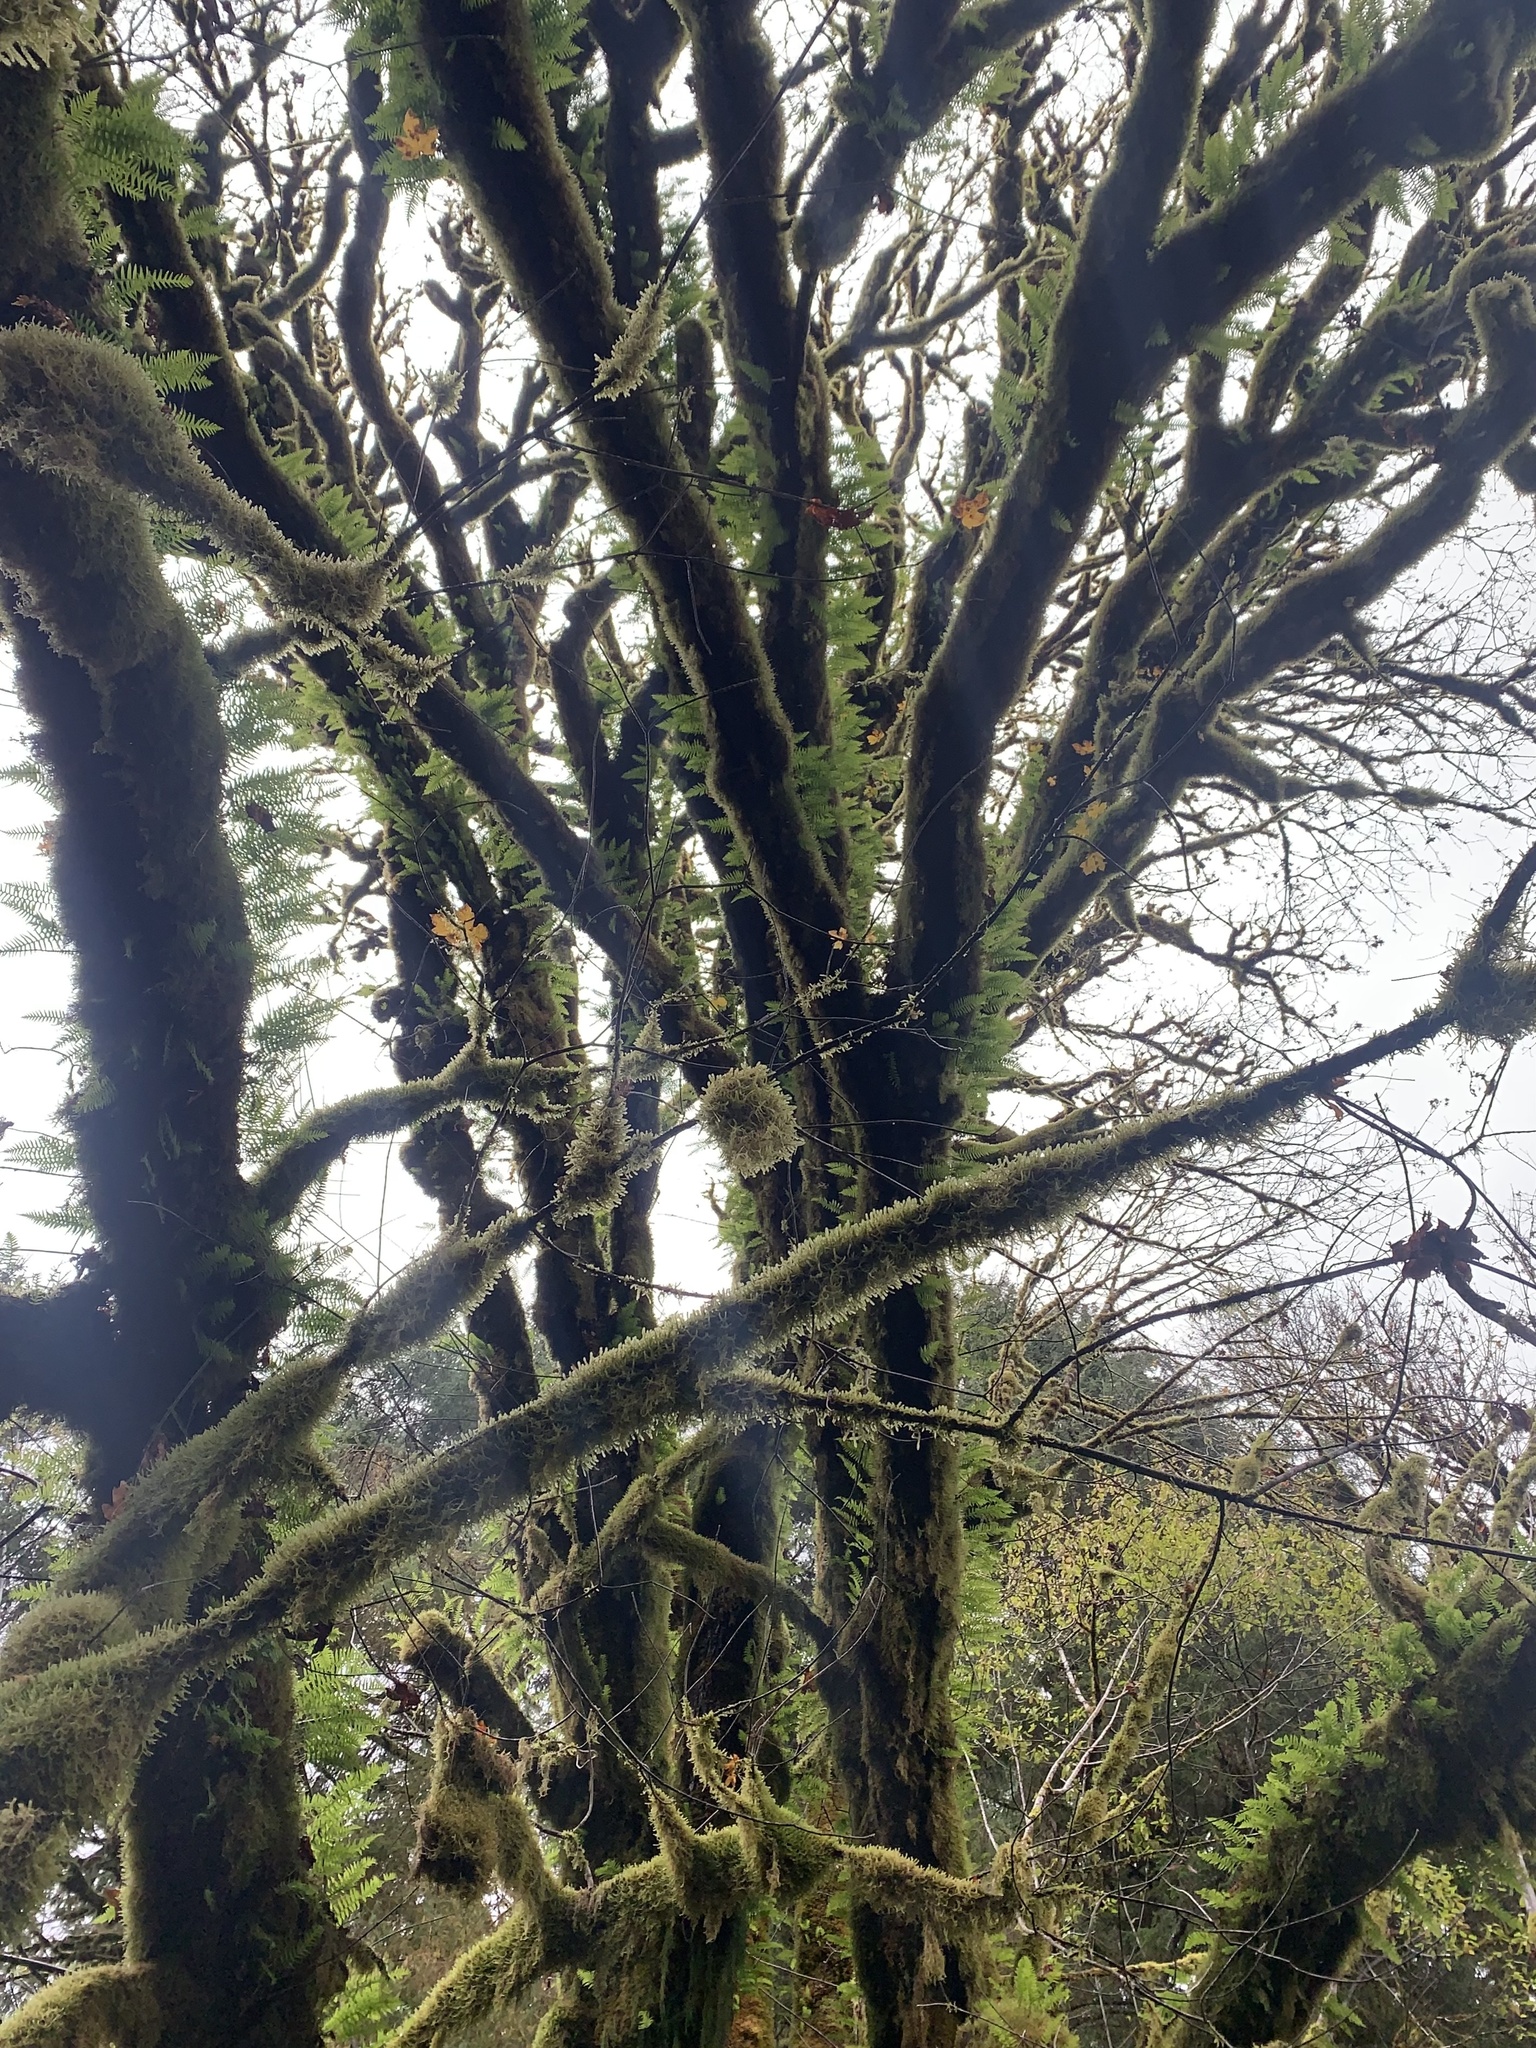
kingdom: Plantae
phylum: Tracheophyta
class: Magnoliopsida
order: Sapindales
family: Sapindaceae
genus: Acer
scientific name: Acer macrophyllum
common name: Oregon maple
